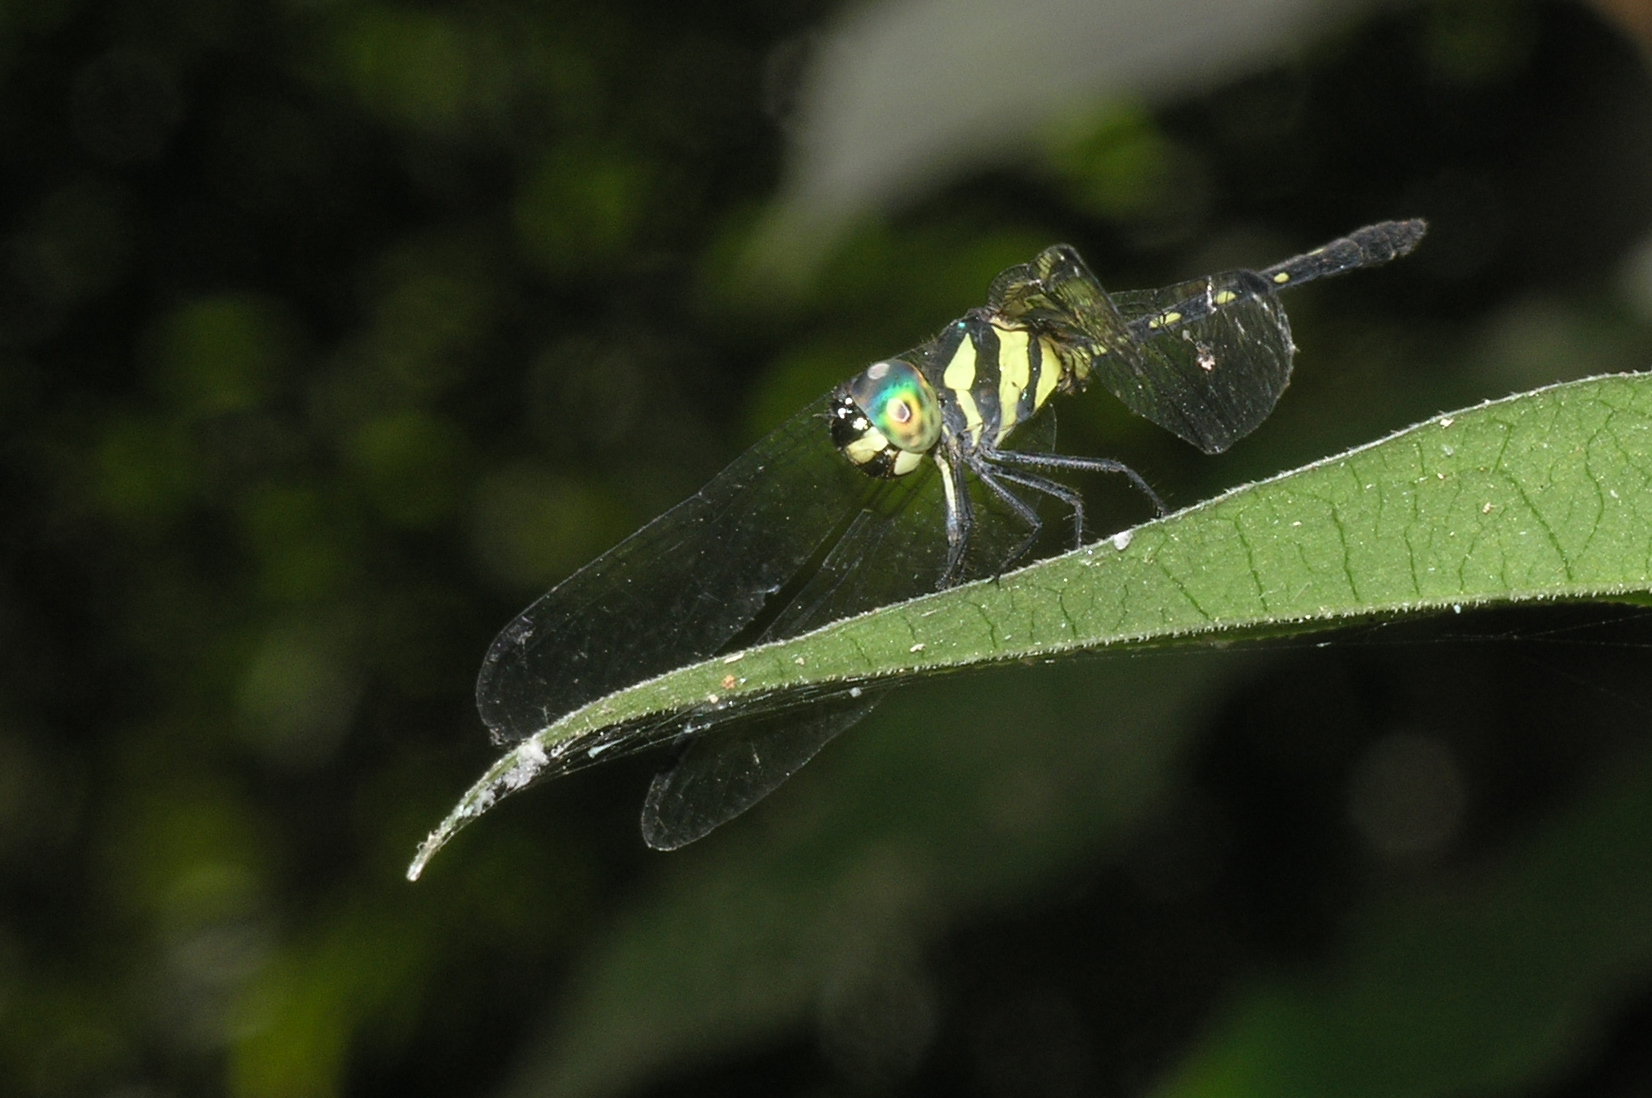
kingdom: Animalia
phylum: Arthropoda
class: Insecta
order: Odonata
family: Libellulidae
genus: Tetrathemis
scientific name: Tetrathemis hyalina
